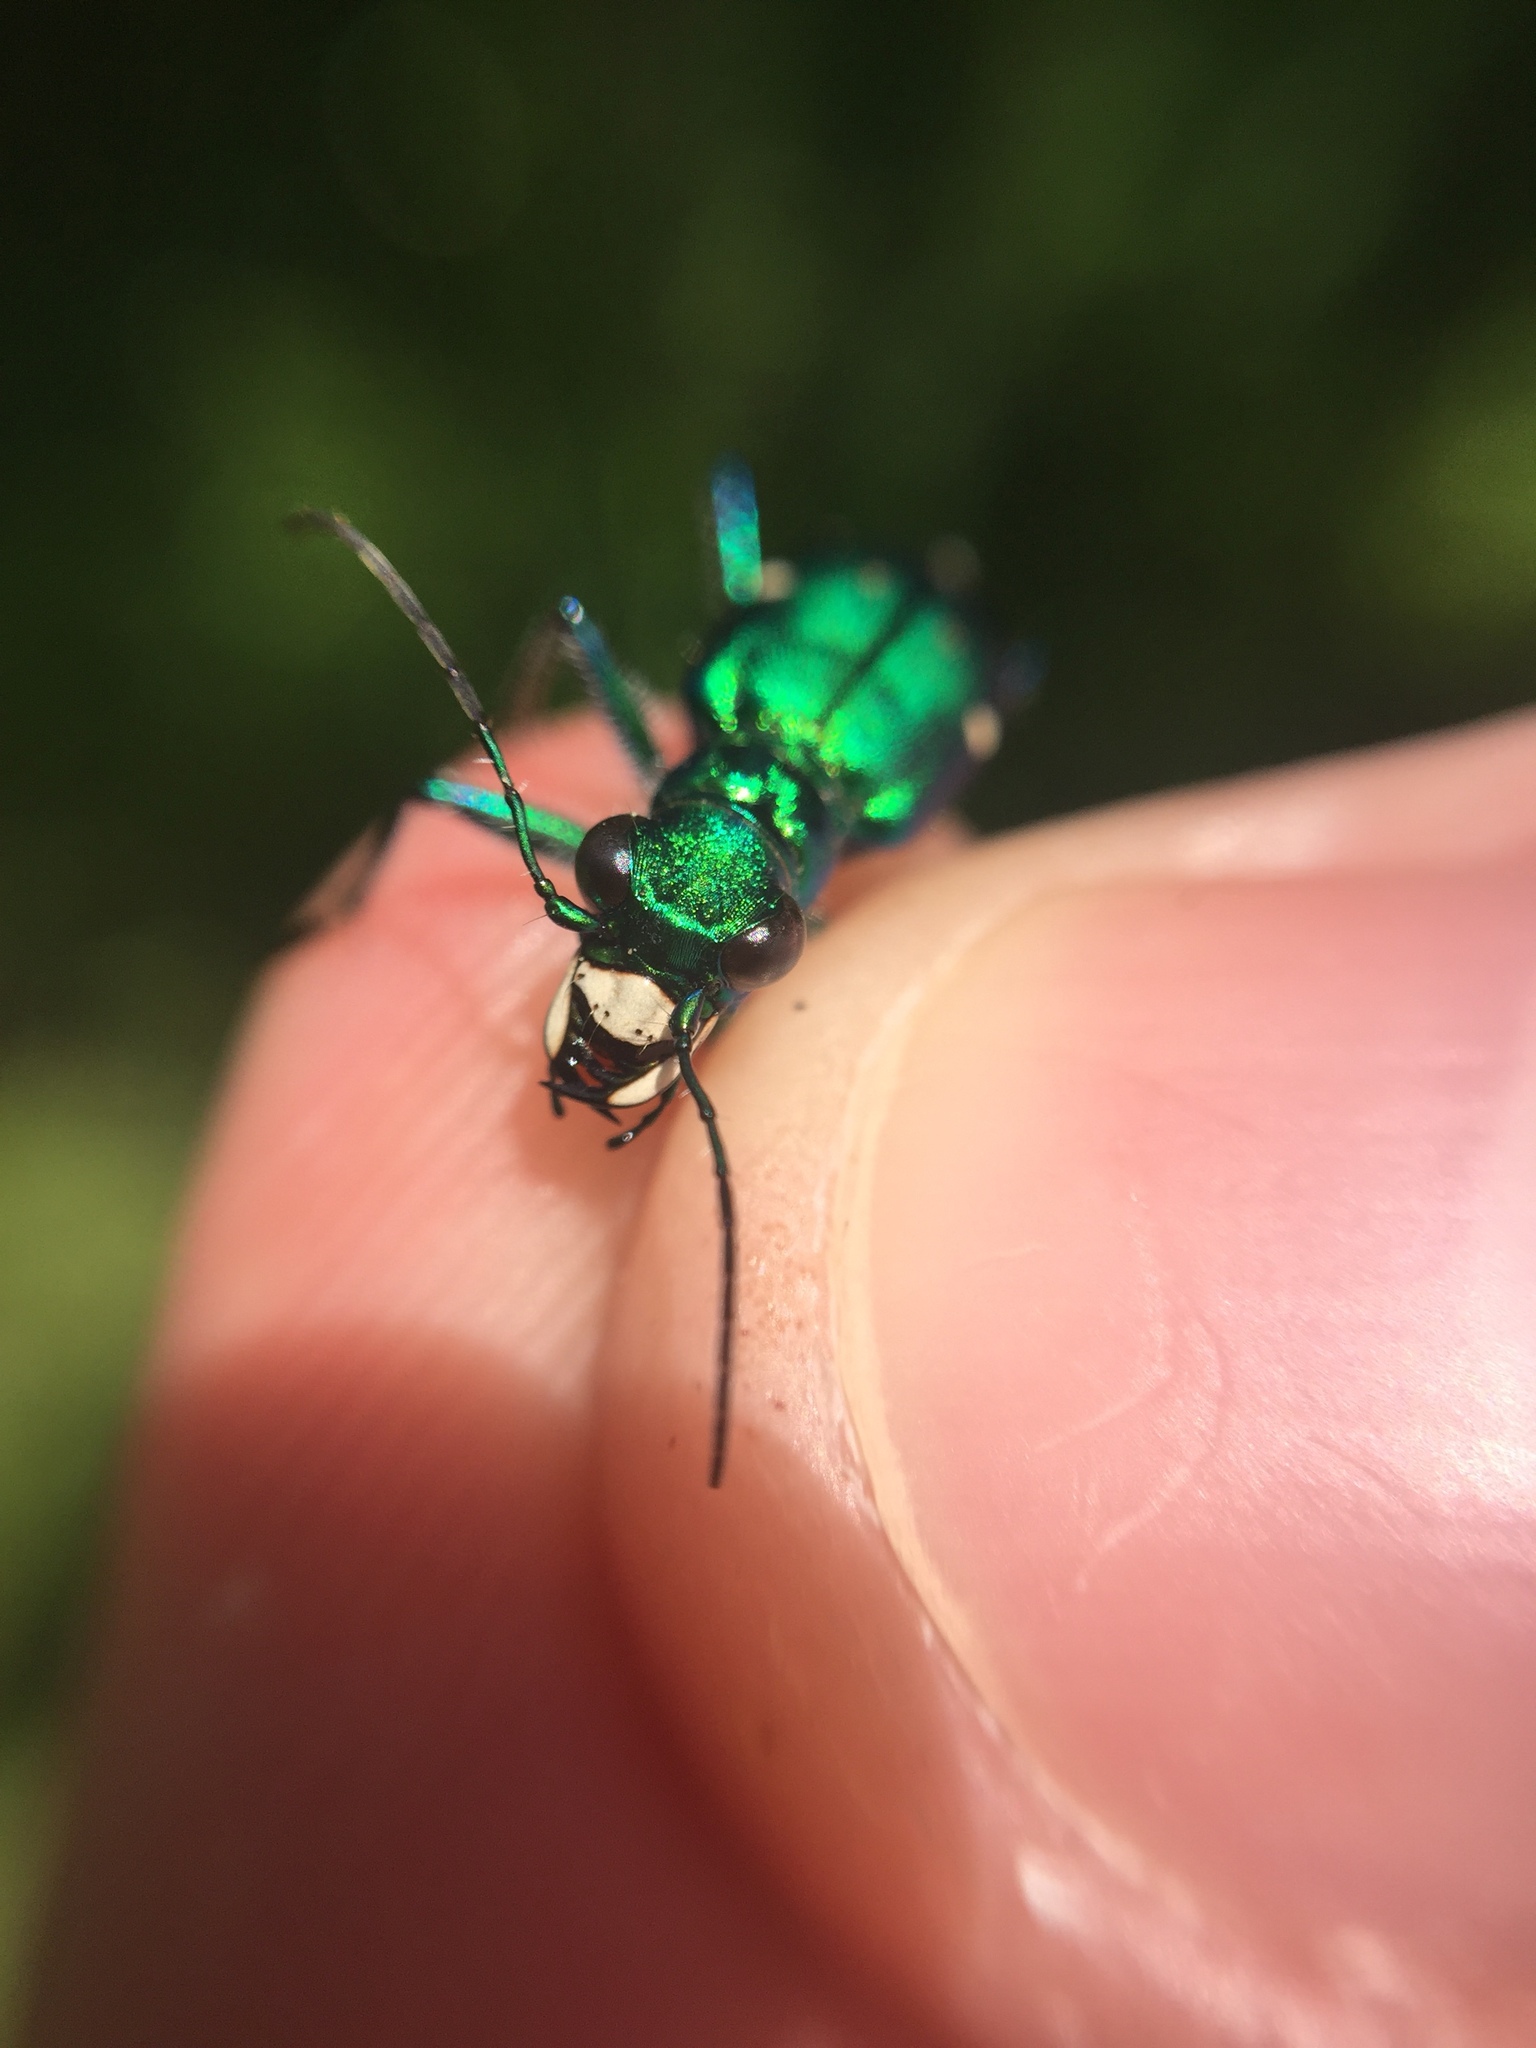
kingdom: Animalia
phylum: Arthropoda
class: Insecta
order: Coleoptera
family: Carabidae
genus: Cicindela
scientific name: Cicindela sexguttata
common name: Six-spotted tiger beetle
